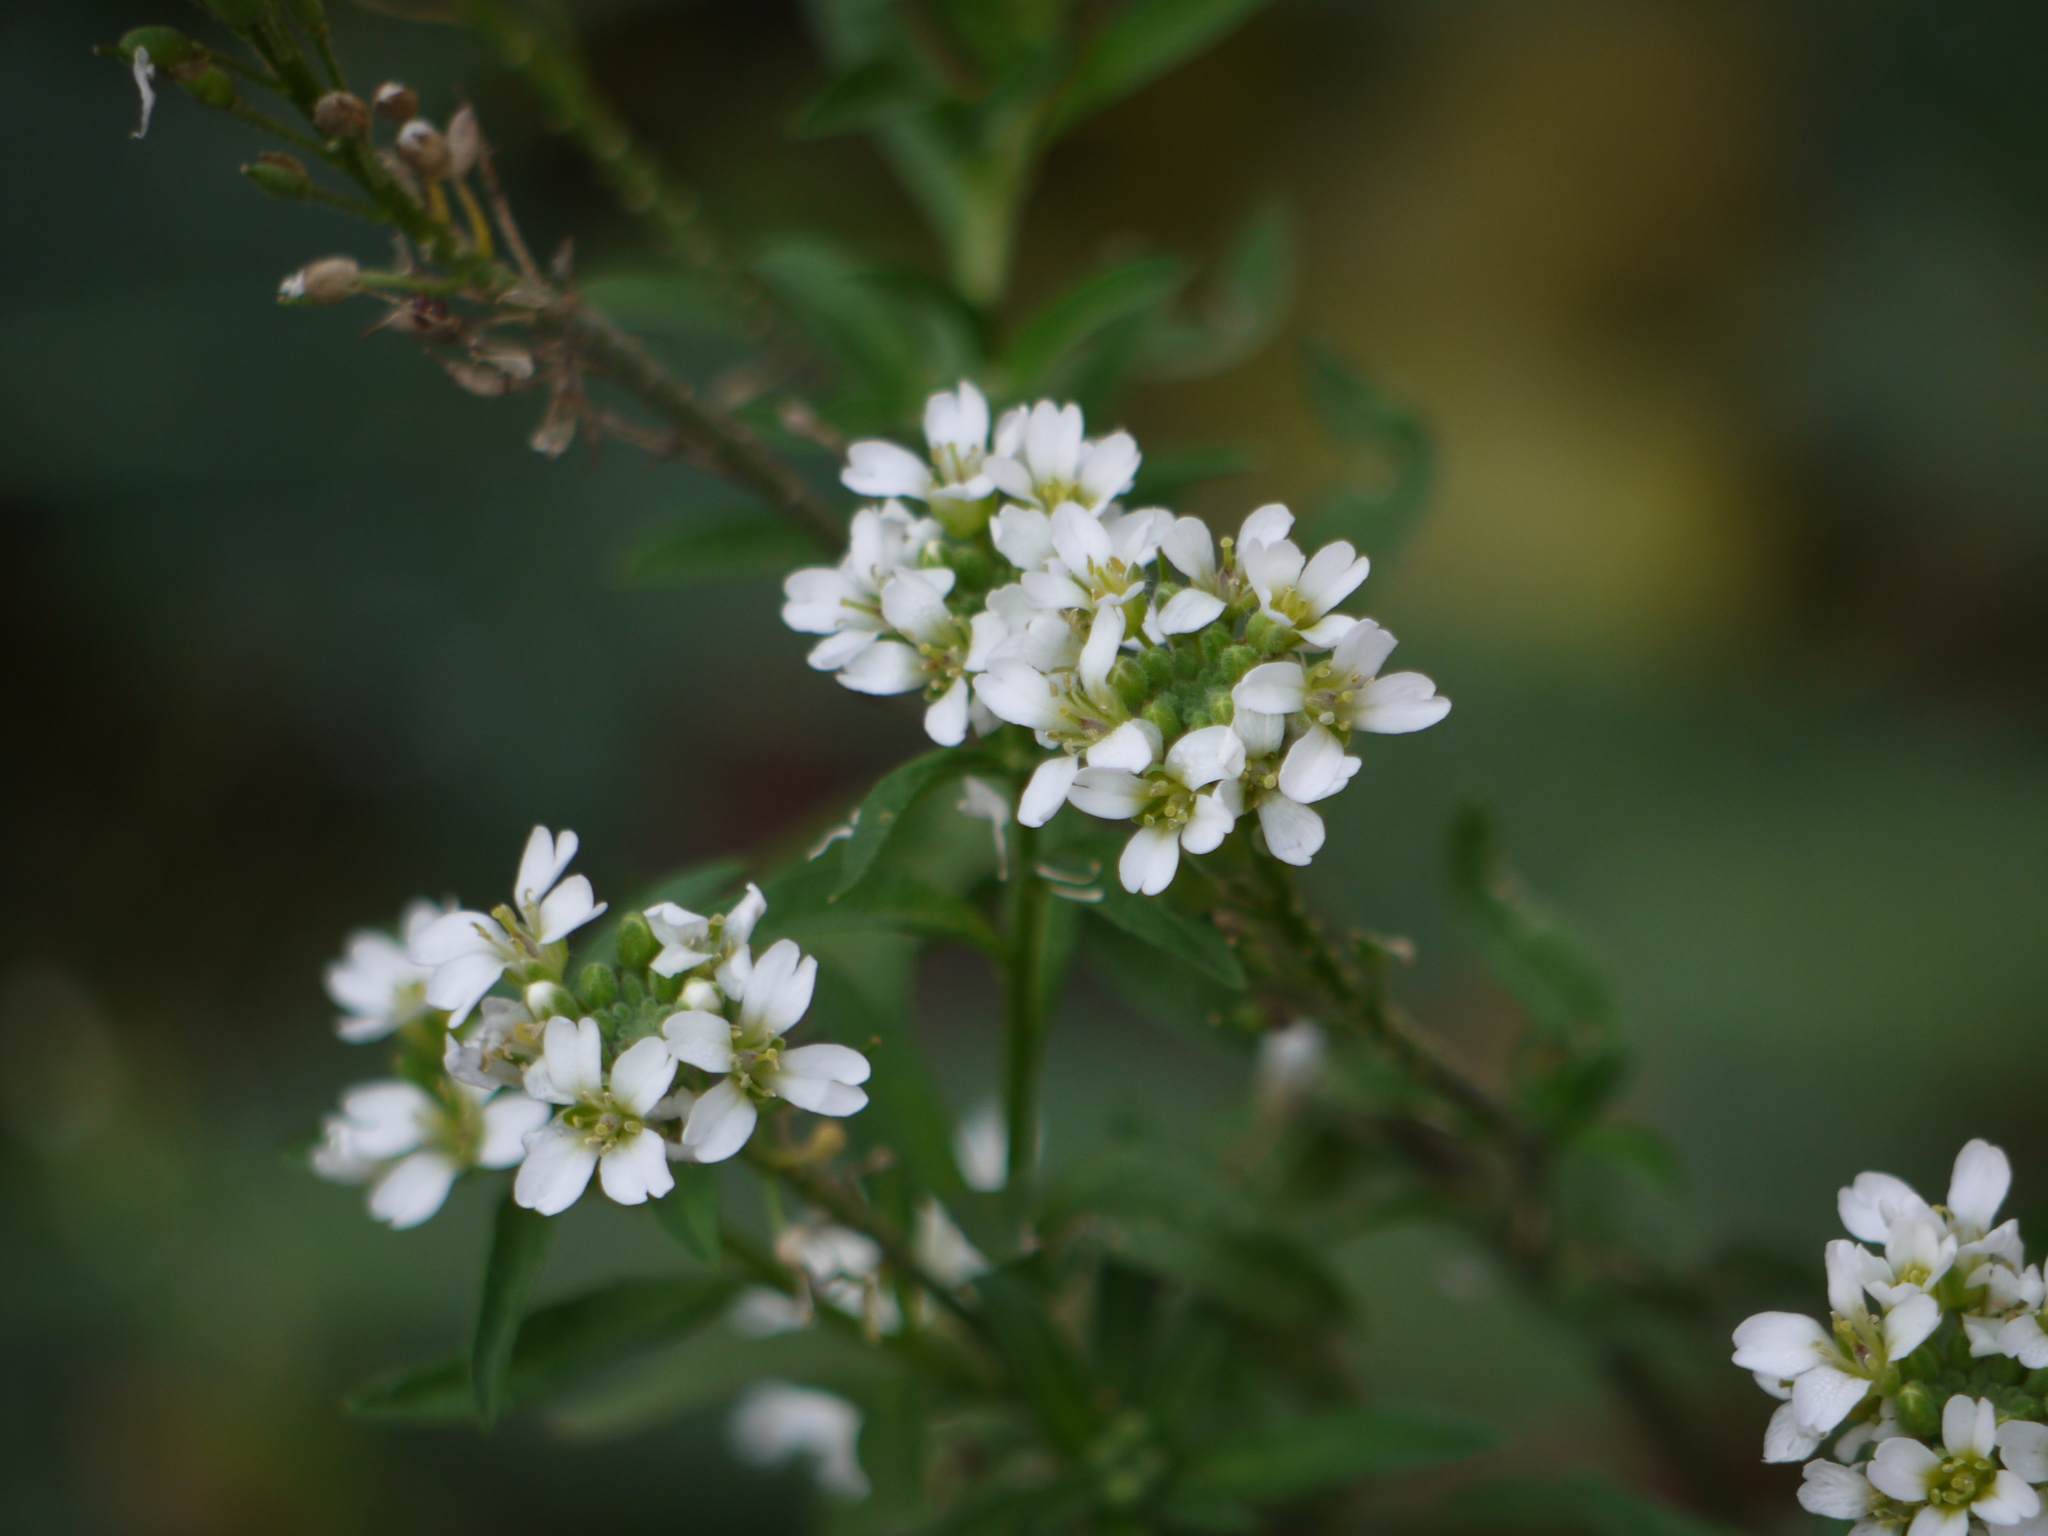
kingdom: Plantae
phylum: Tracheophyta
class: Magnoliopsida
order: Brassicales
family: Brassicaceae
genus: Berteroa
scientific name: Berteroa incana
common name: Hoary alison
